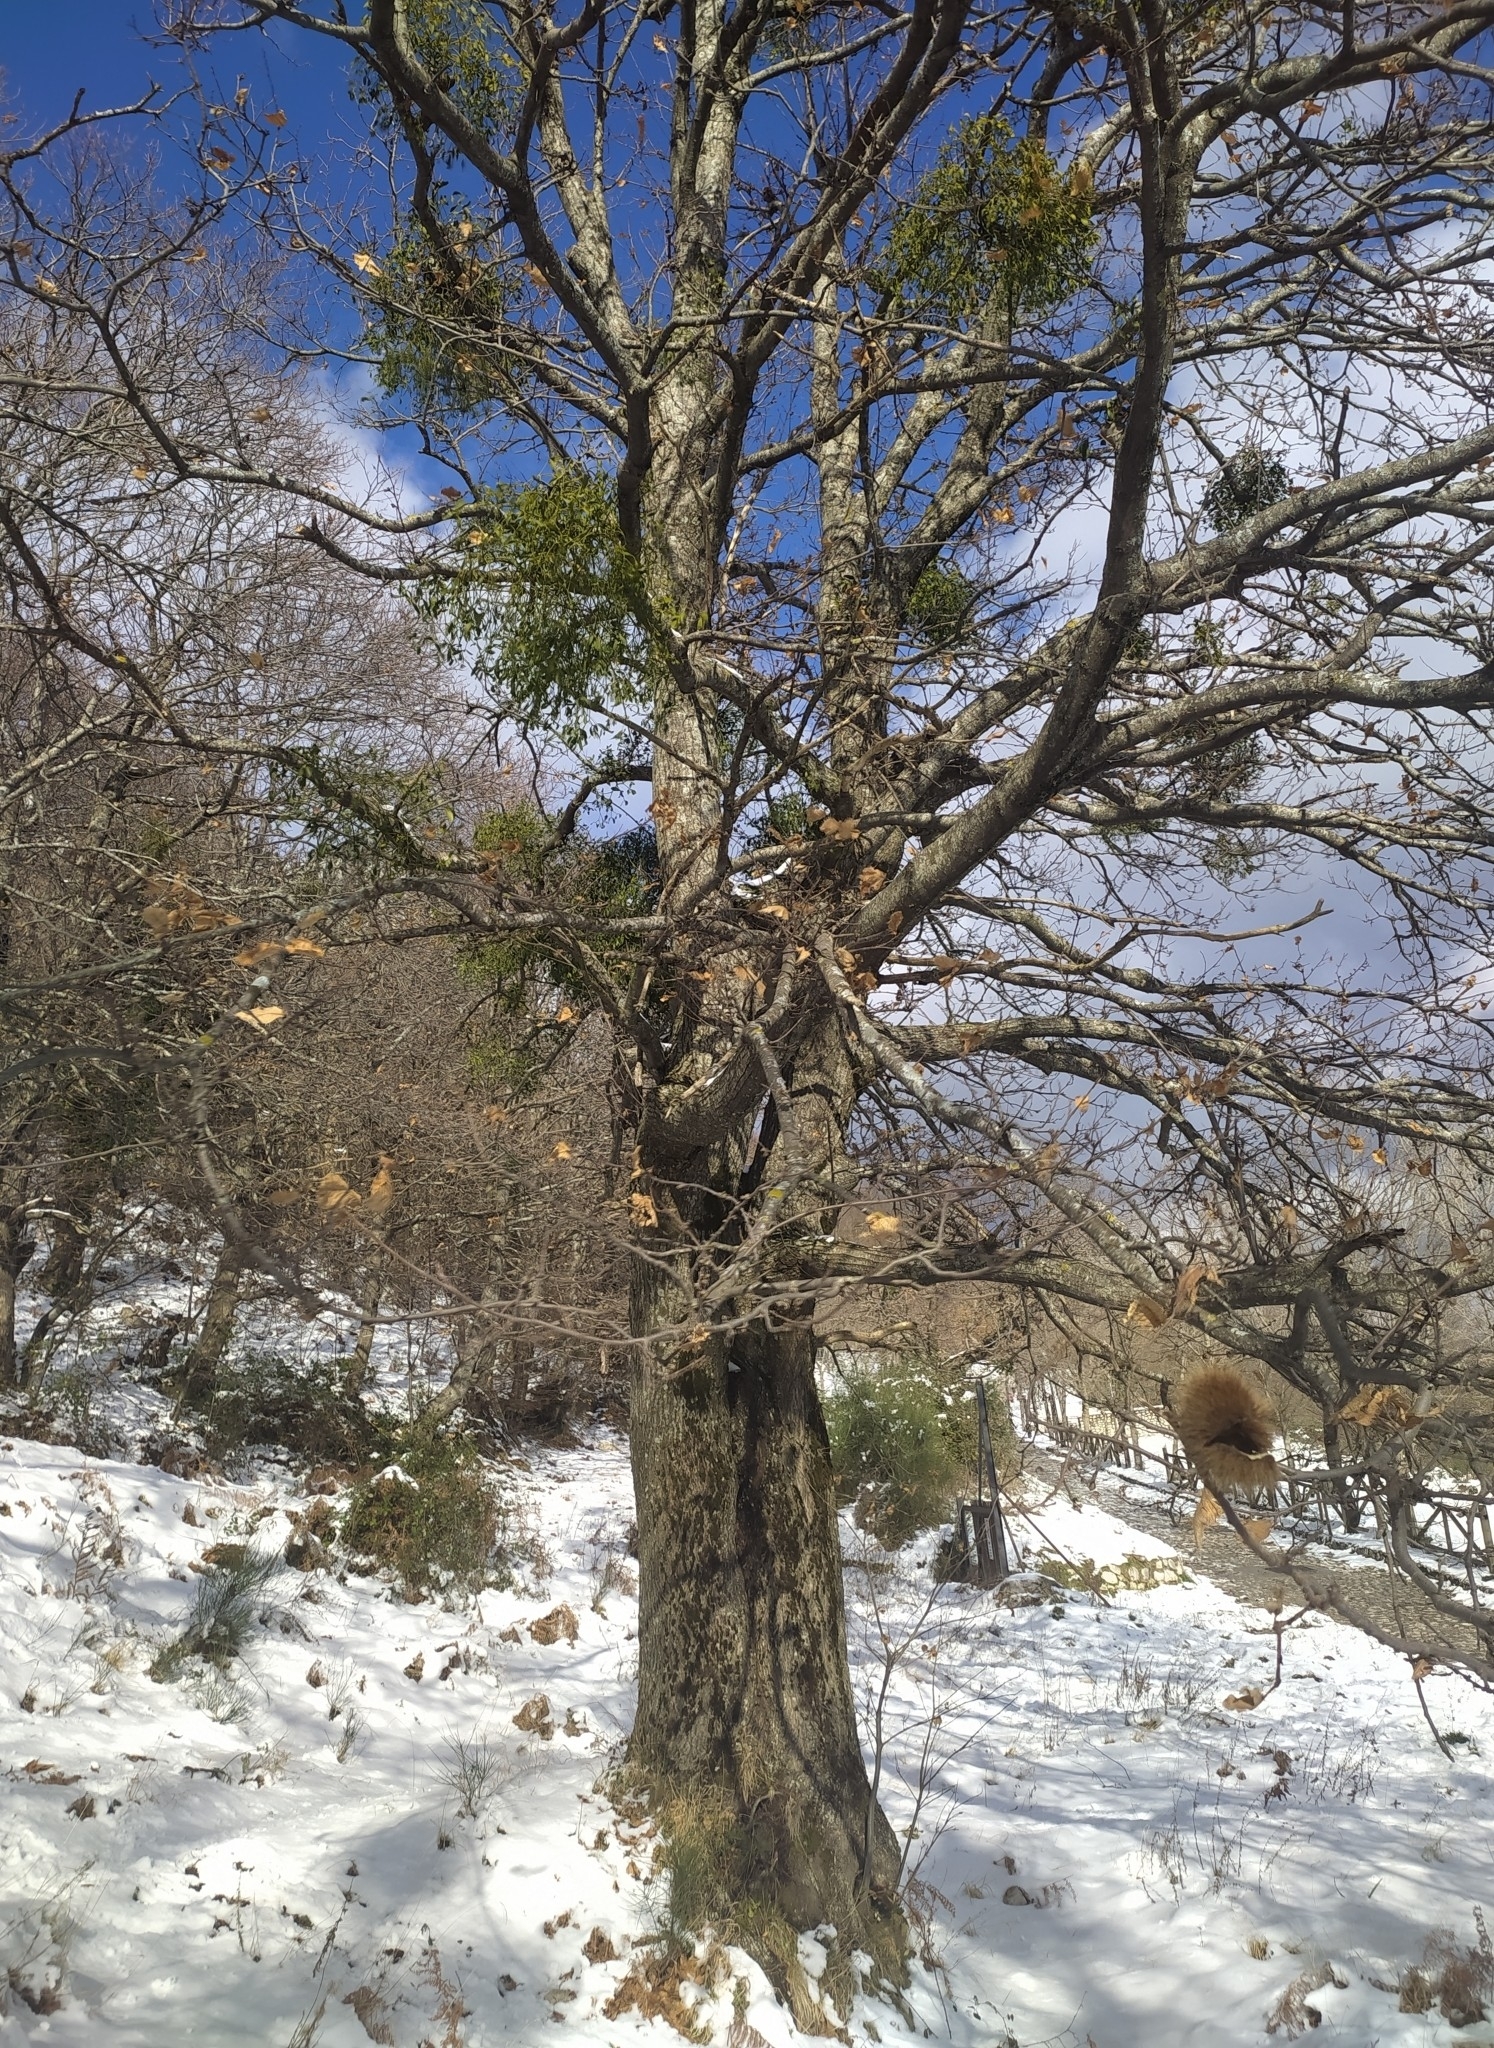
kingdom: Plantae
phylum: Tracheophyta
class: Magnoliopsida
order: Santalales
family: Viscaceae
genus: Viscum
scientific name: Viscum album
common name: Mistletoe
